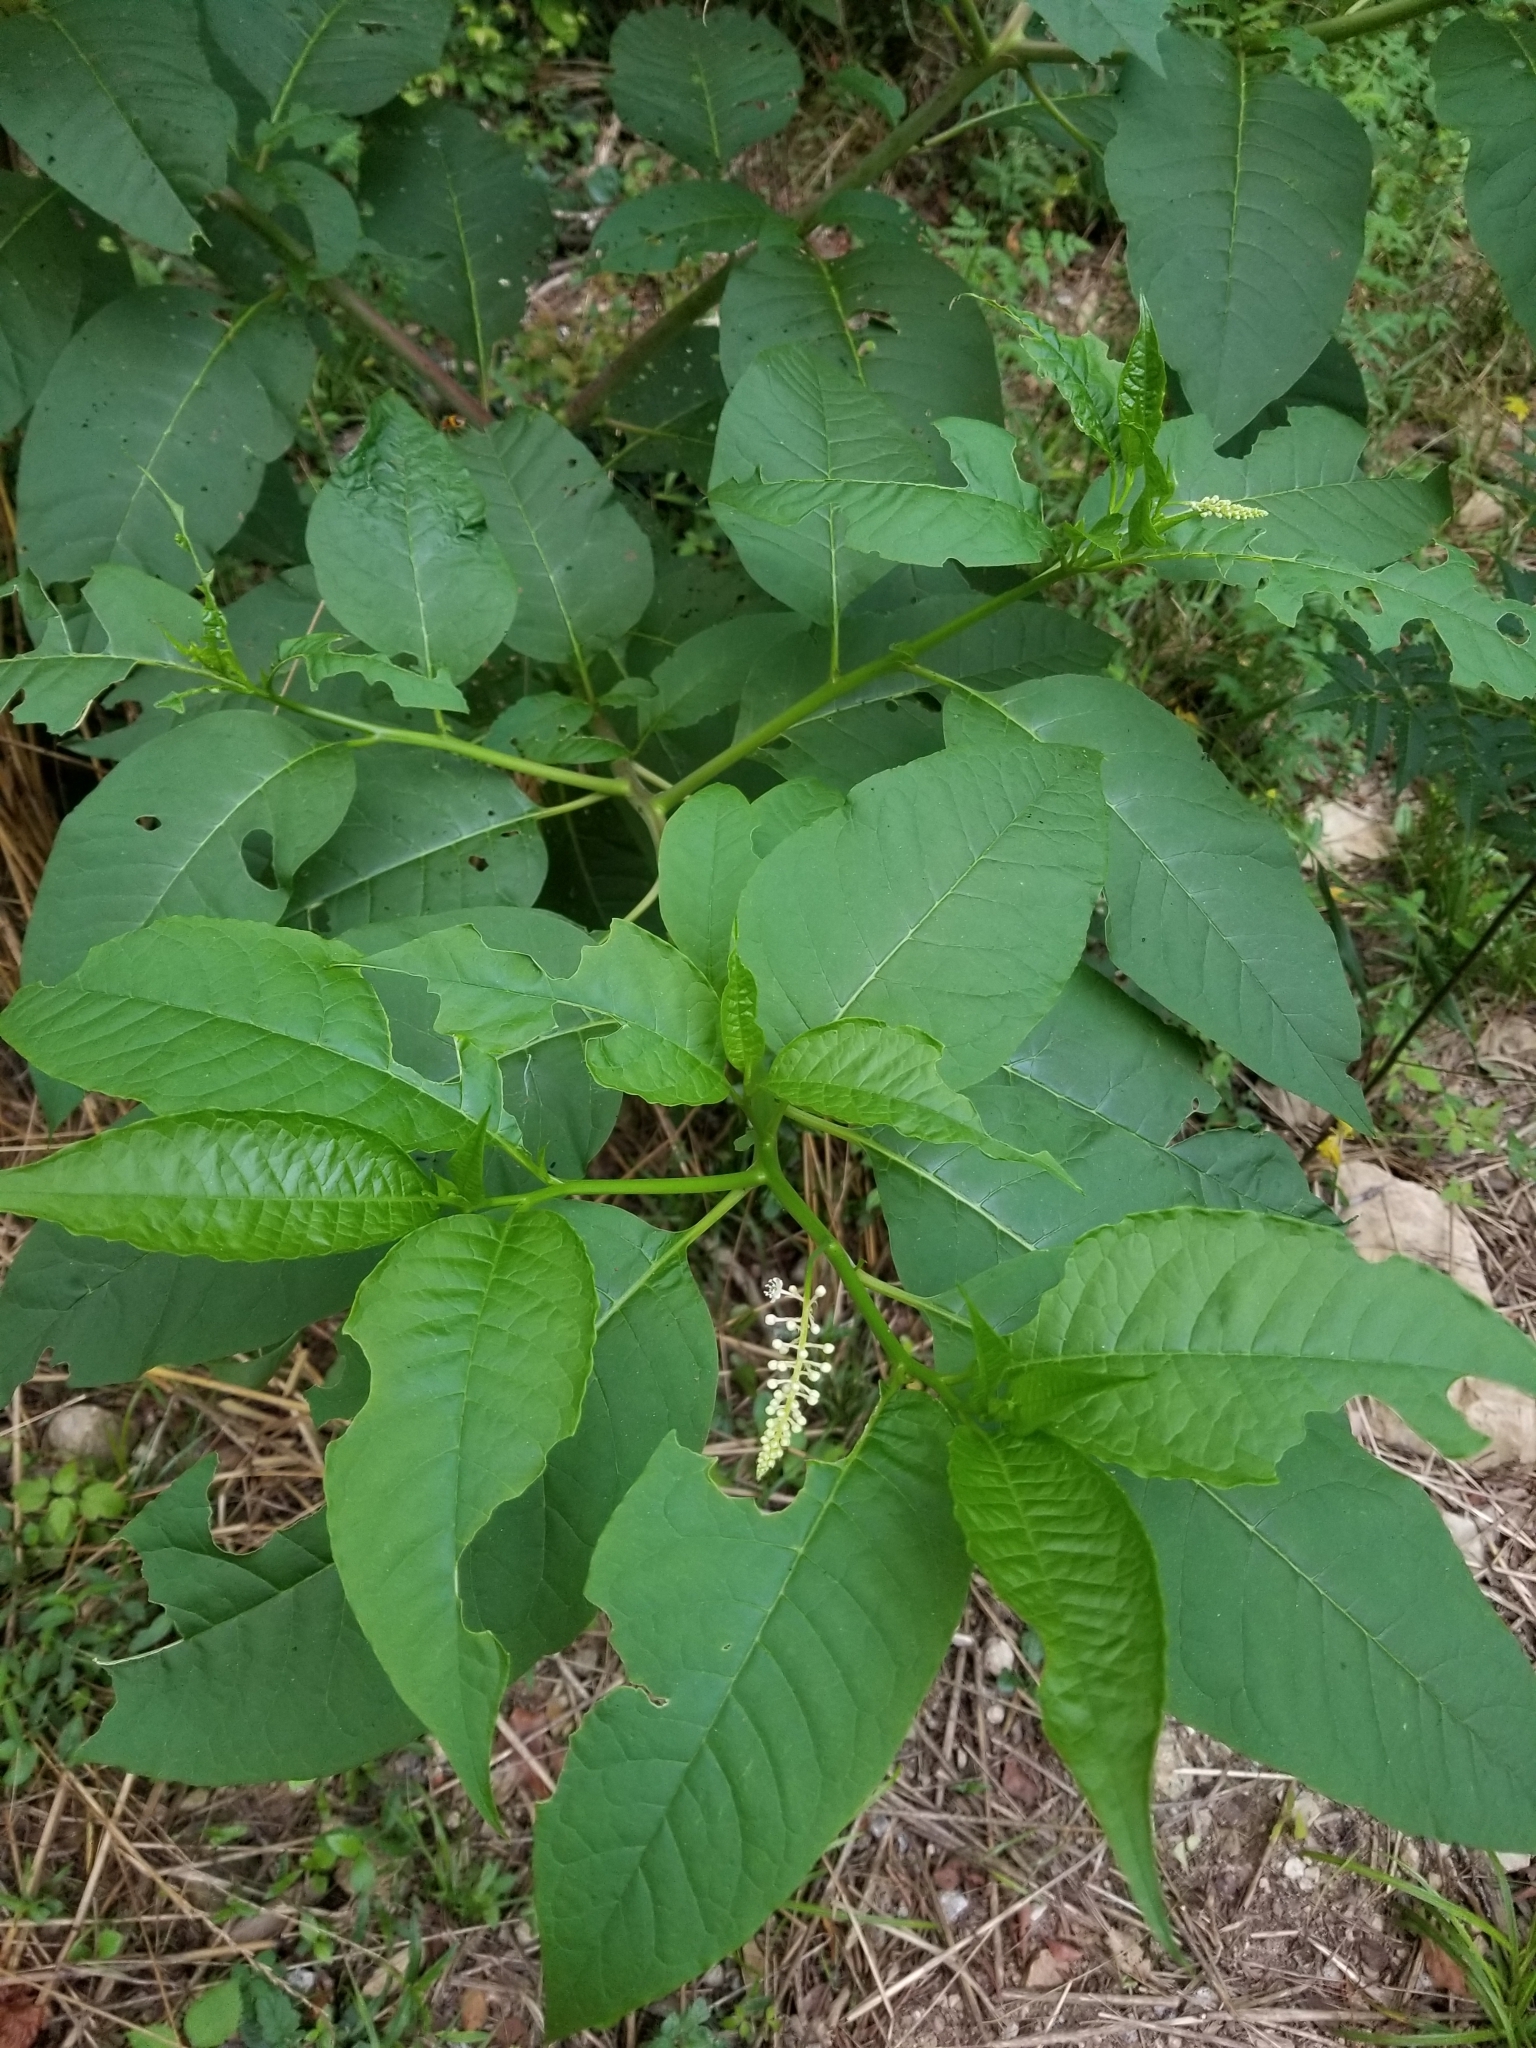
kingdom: Plantae
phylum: Tracheophyta
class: Magnoliopsida
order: Caryophyllales
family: Phytolaccaceae
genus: Phytolacca
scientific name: Phytolacca americana
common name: American pokeweed
